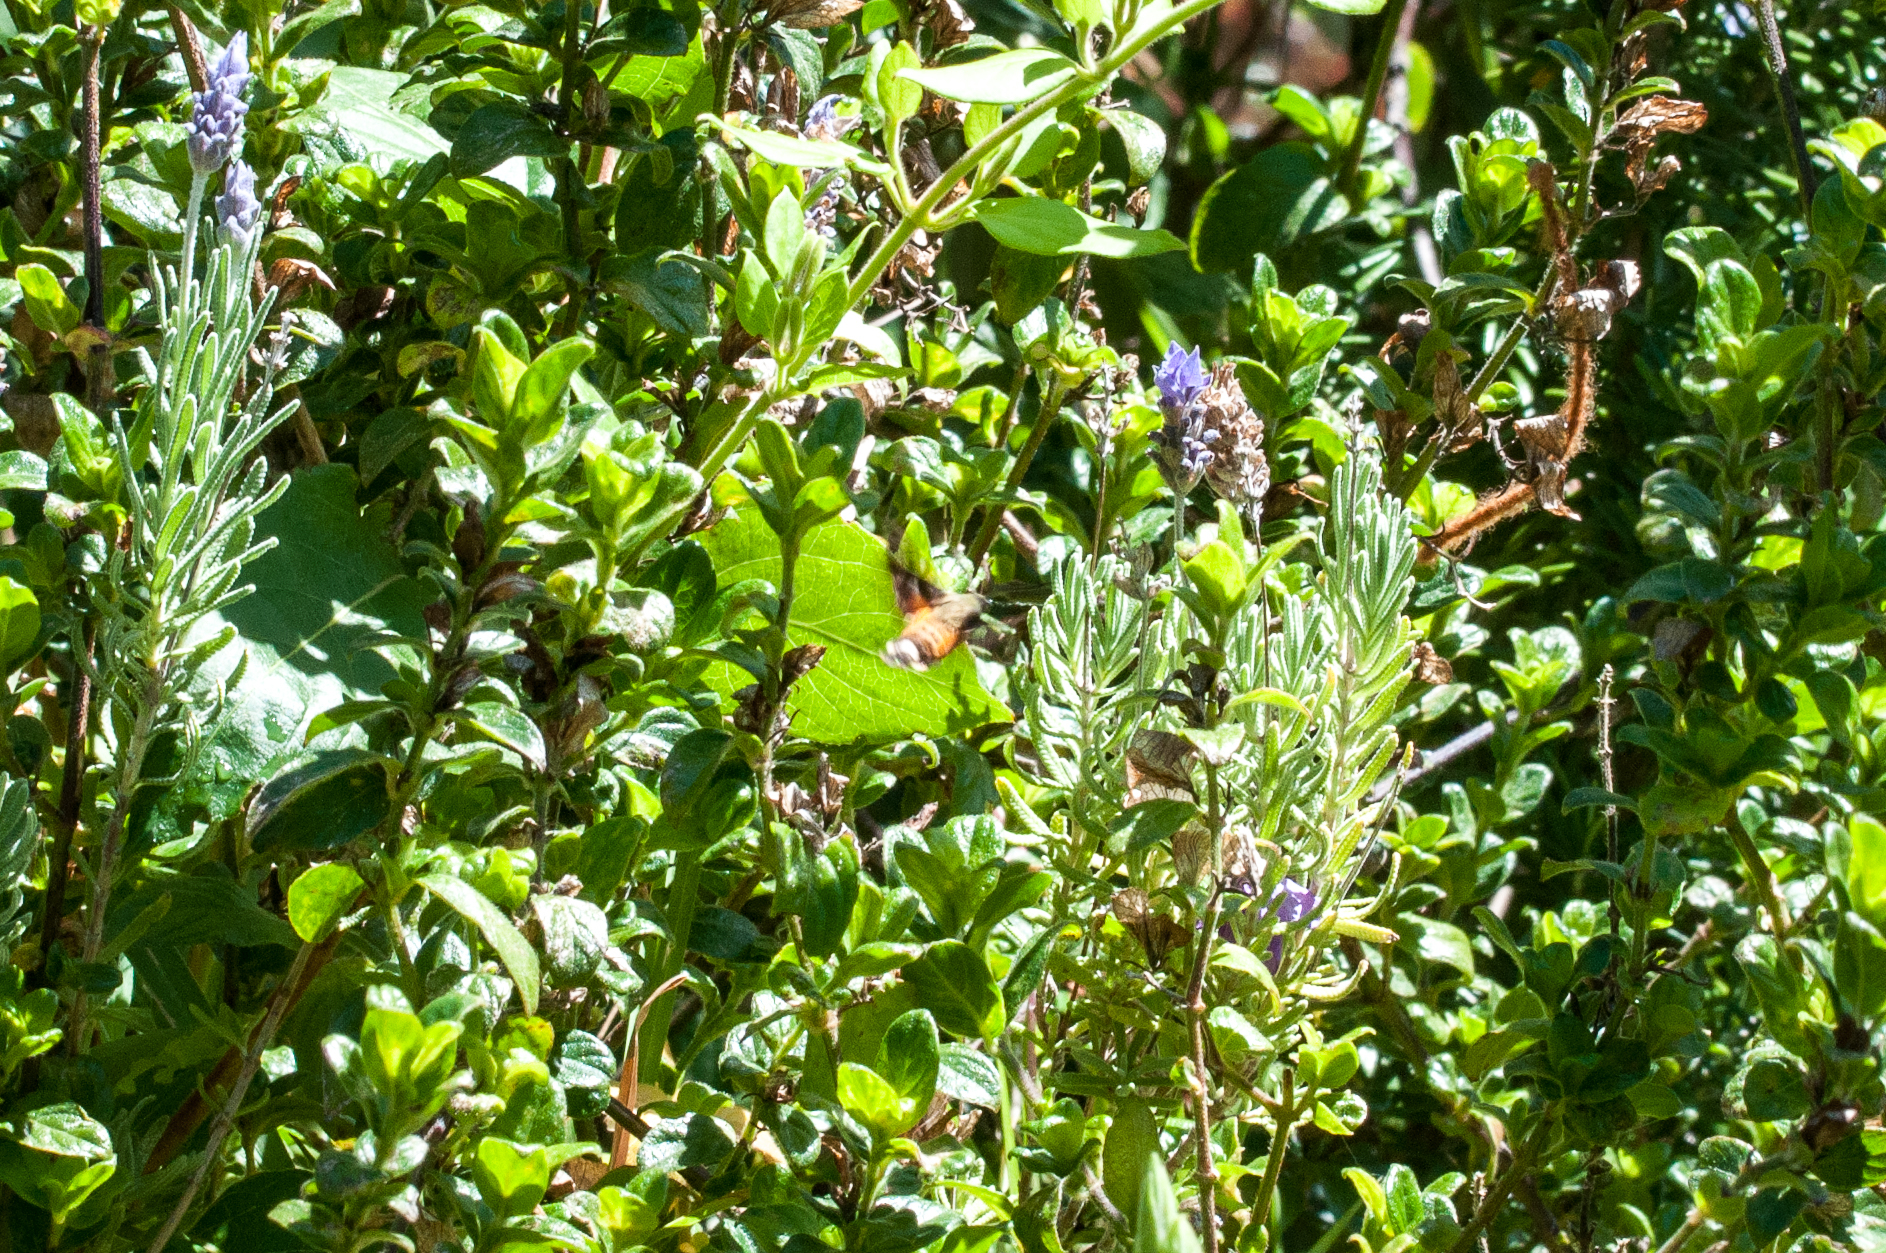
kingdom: Animalia
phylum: Arthropoda
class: Insecta
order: Lepidoptera
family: Sphingidae
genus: Macroglossum
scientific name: Macroglossum trochilus
